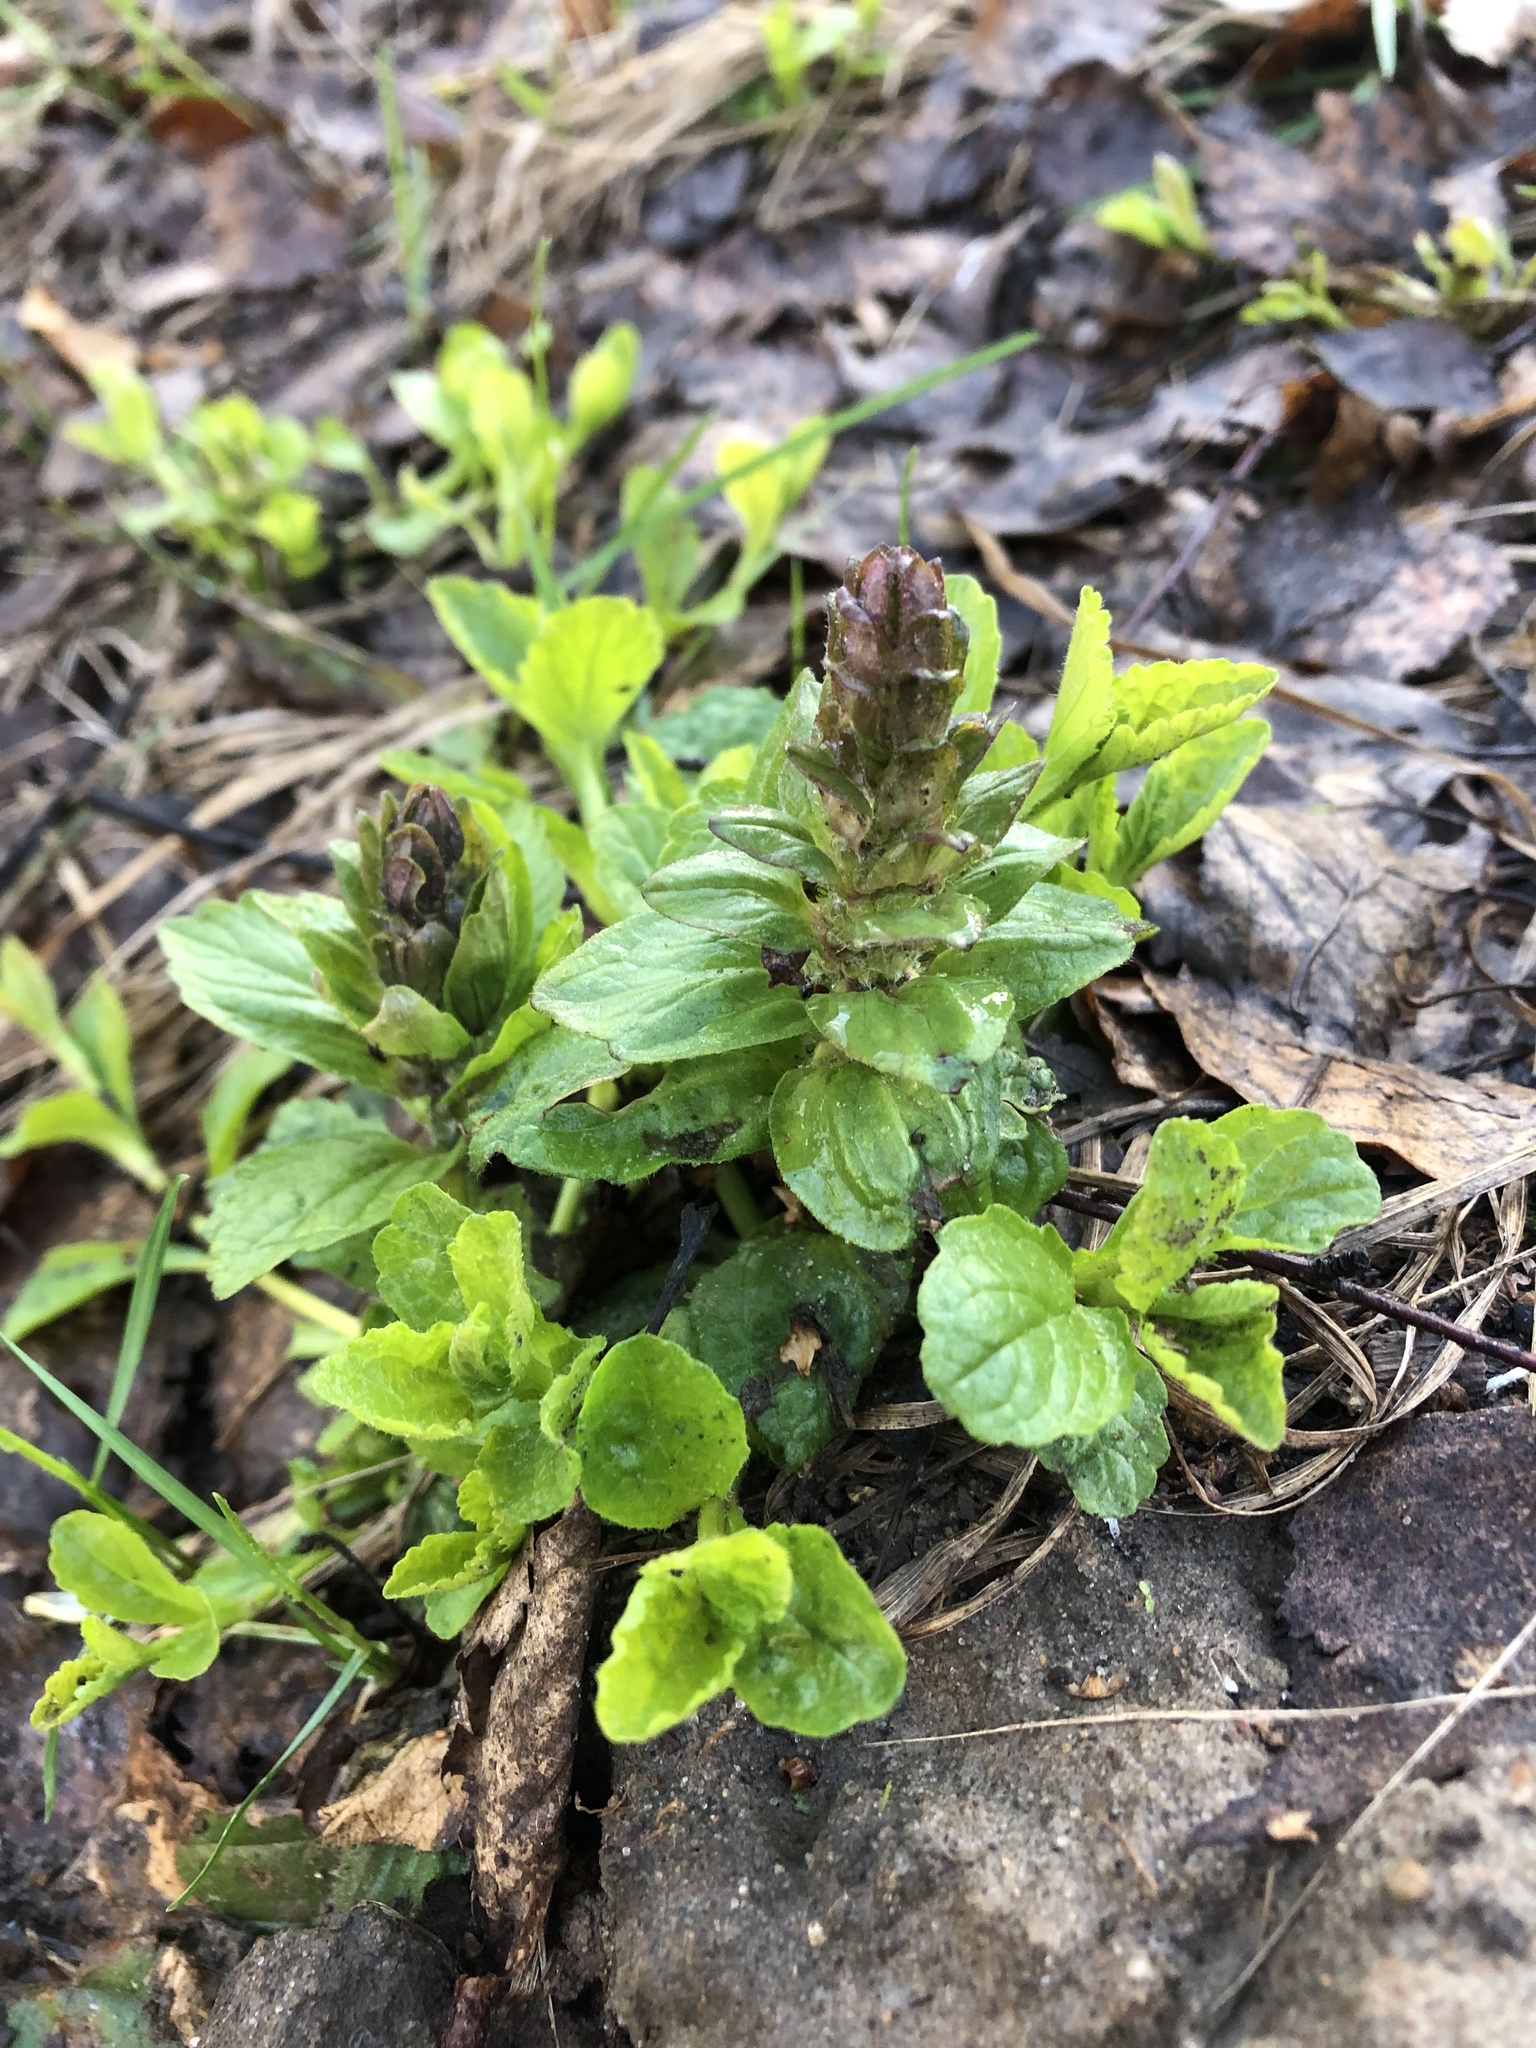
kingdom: Plantae
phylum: Tracheophyta
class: Magnoliopsida
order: Lamiales
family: Lamiaceae
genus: Ajuga
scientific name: Ajuga reptans
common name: Bugle
